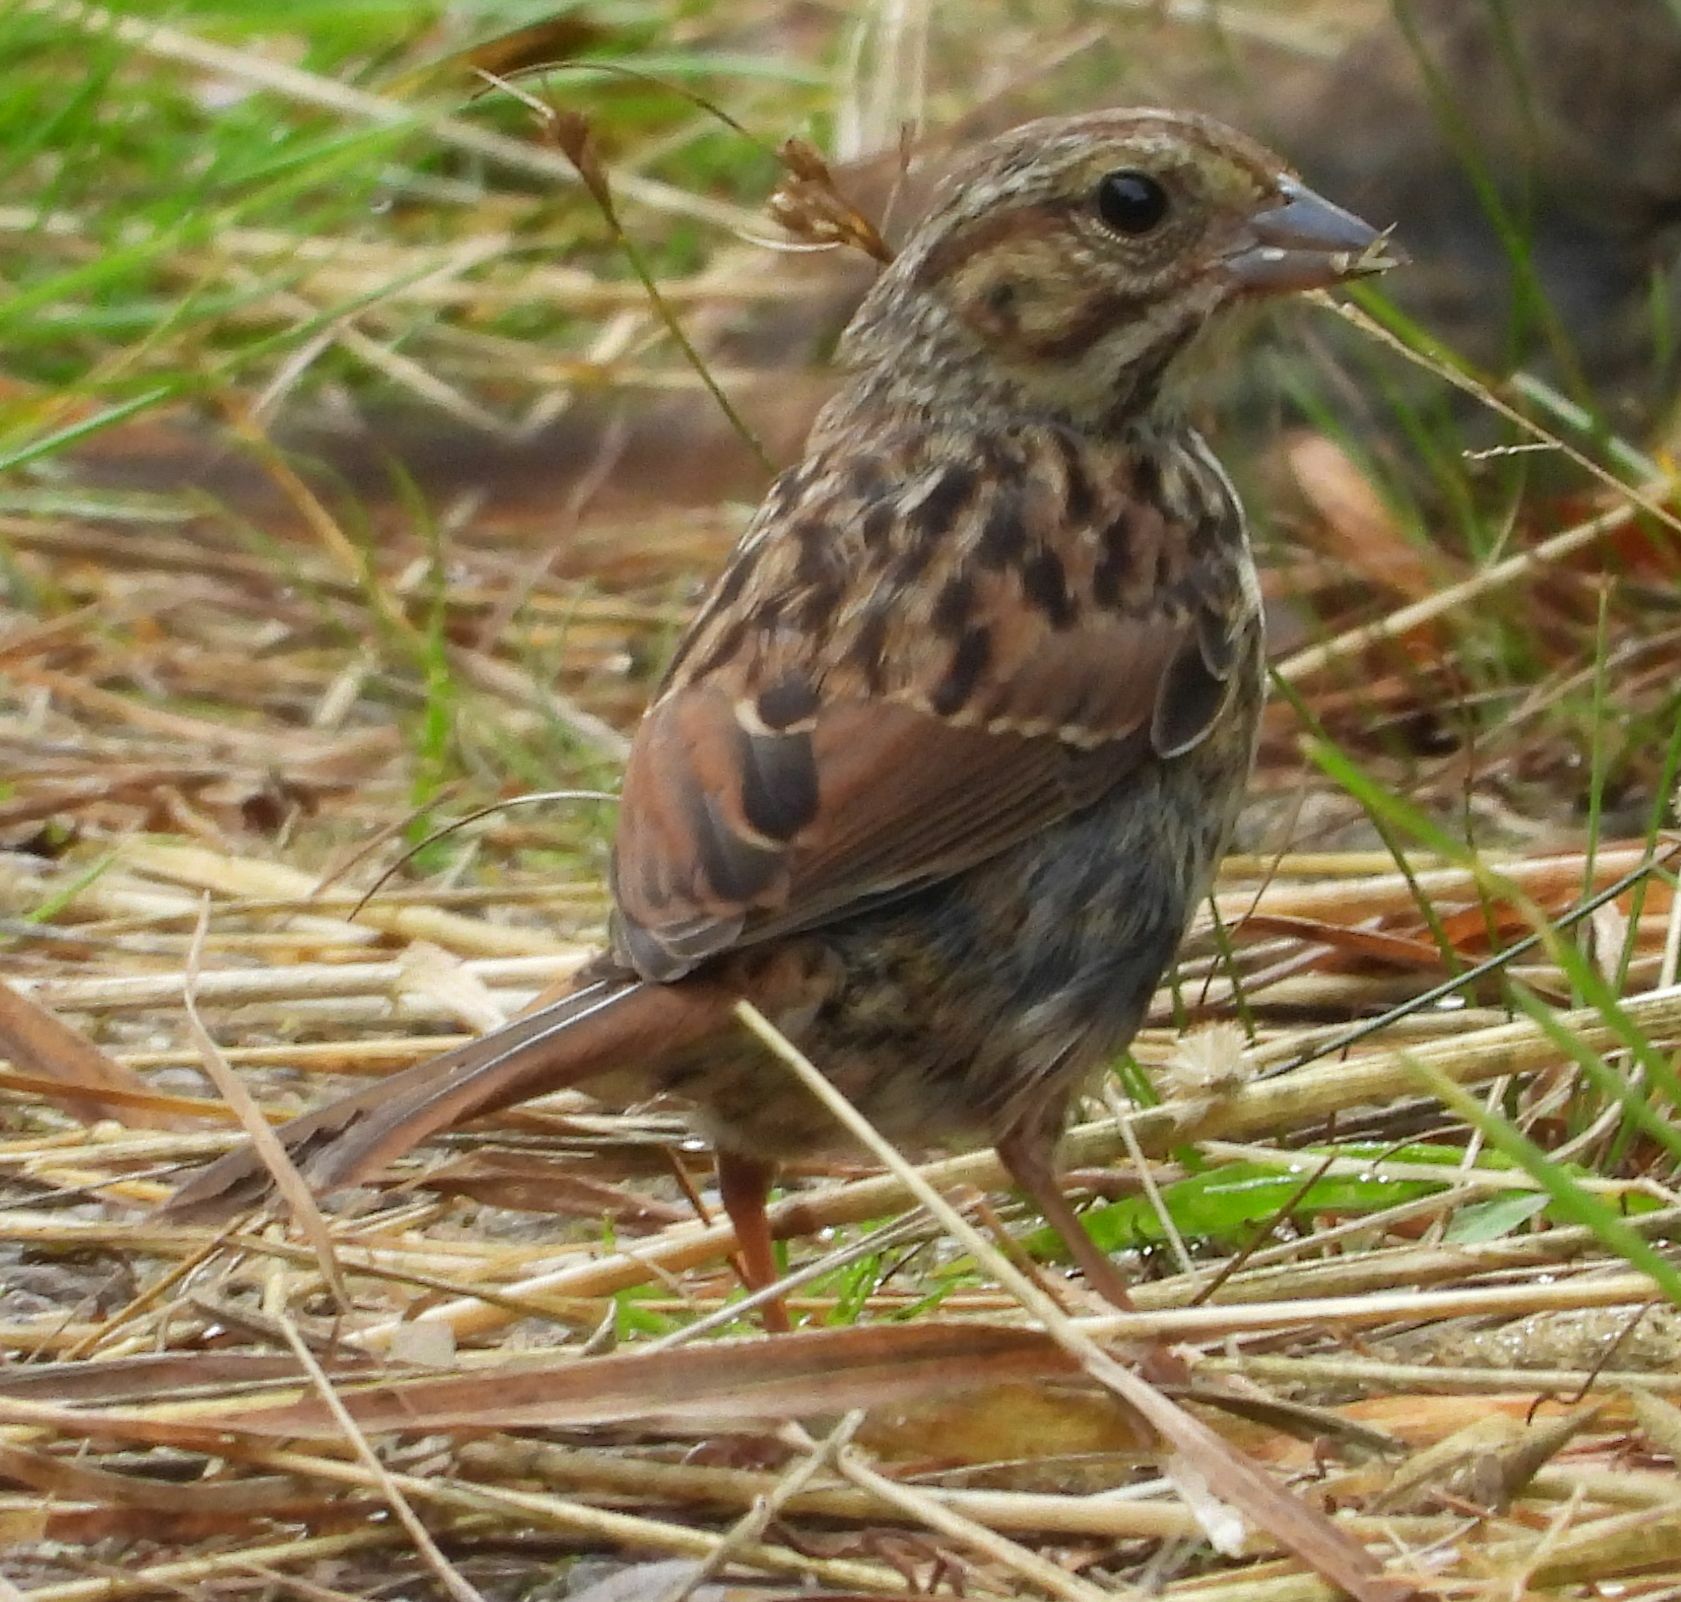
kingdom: Animalia
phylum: Chordata
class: Aves
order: Passeriformes
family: Passerellidae
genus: Melospiza
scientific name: Melospiza melodia
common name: Song sparrow
